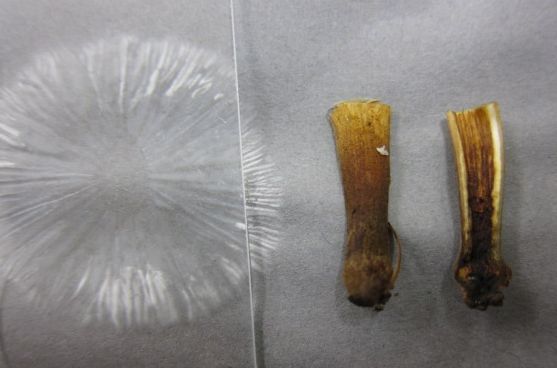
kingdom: Fungi
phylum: Basidiomycota
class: Agaricomycetes
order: Agaricales
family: Physalacriaceae
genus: Flammulina
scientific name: Flammulina velutipes
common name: Velvet shank
